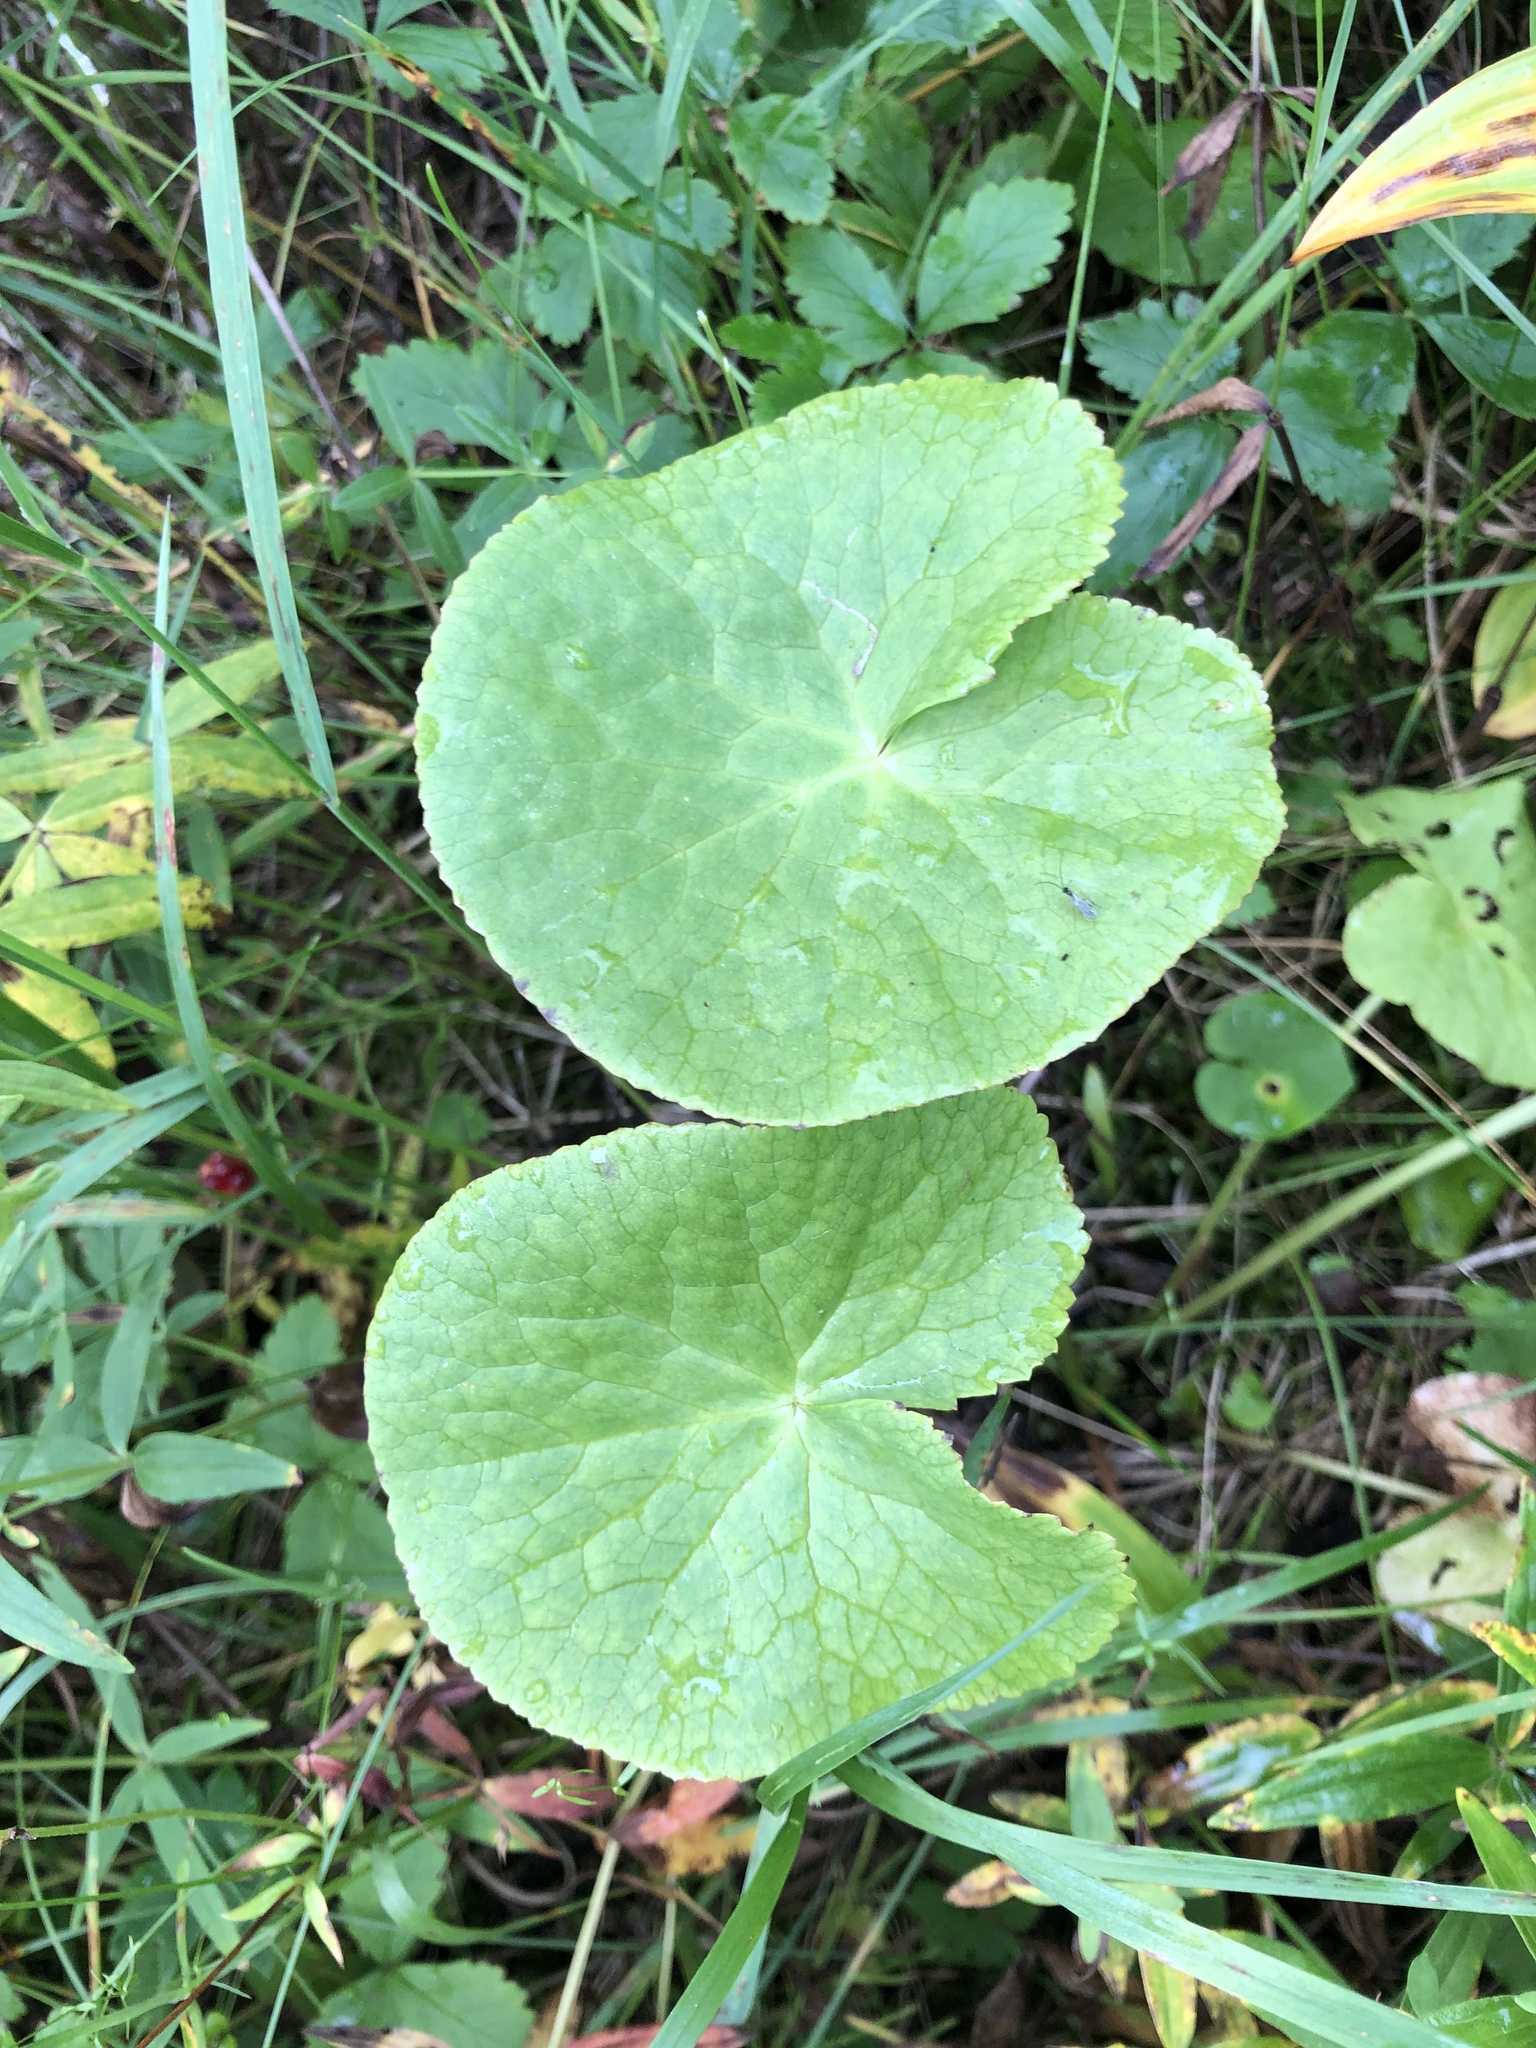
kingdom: Plantae
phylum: Tracheophyta
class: Magnoliopsida
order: Ranunculales
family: Ranunculaceae
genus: Caltha
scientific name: Caltha palustris
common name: Marsh marigold
